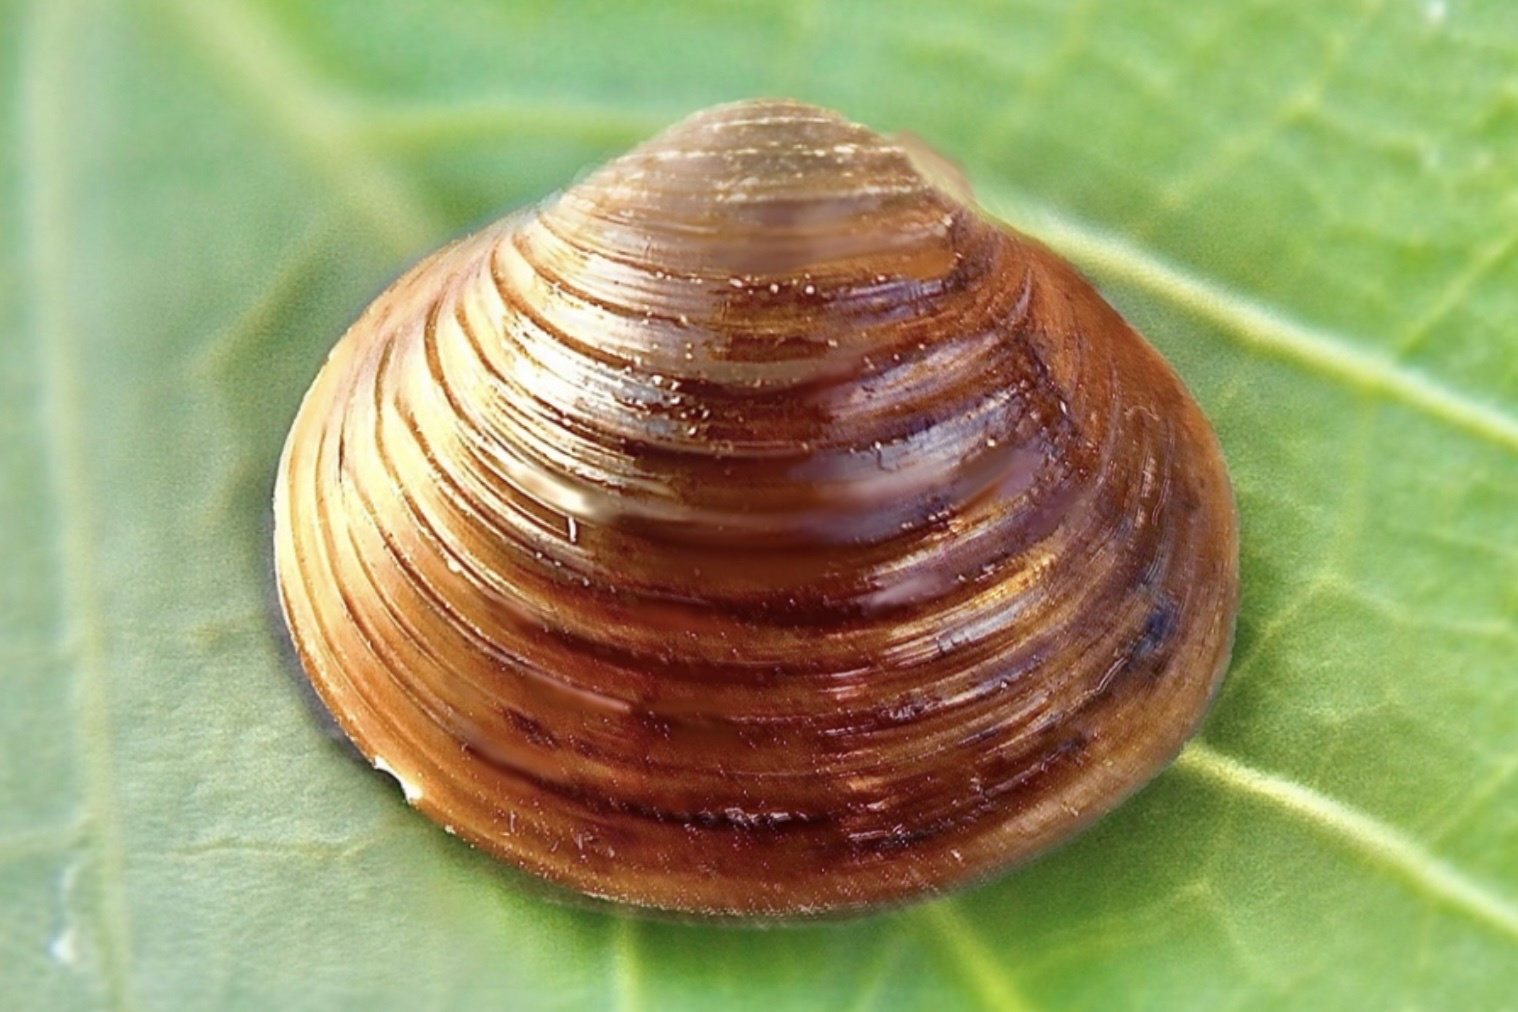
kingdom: Animalia
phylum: Mollusca
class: Bivalvia
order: Venerida
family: Cyrenidae
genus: Corbicula
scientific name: Corbicula fluminea
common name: Asian clam
